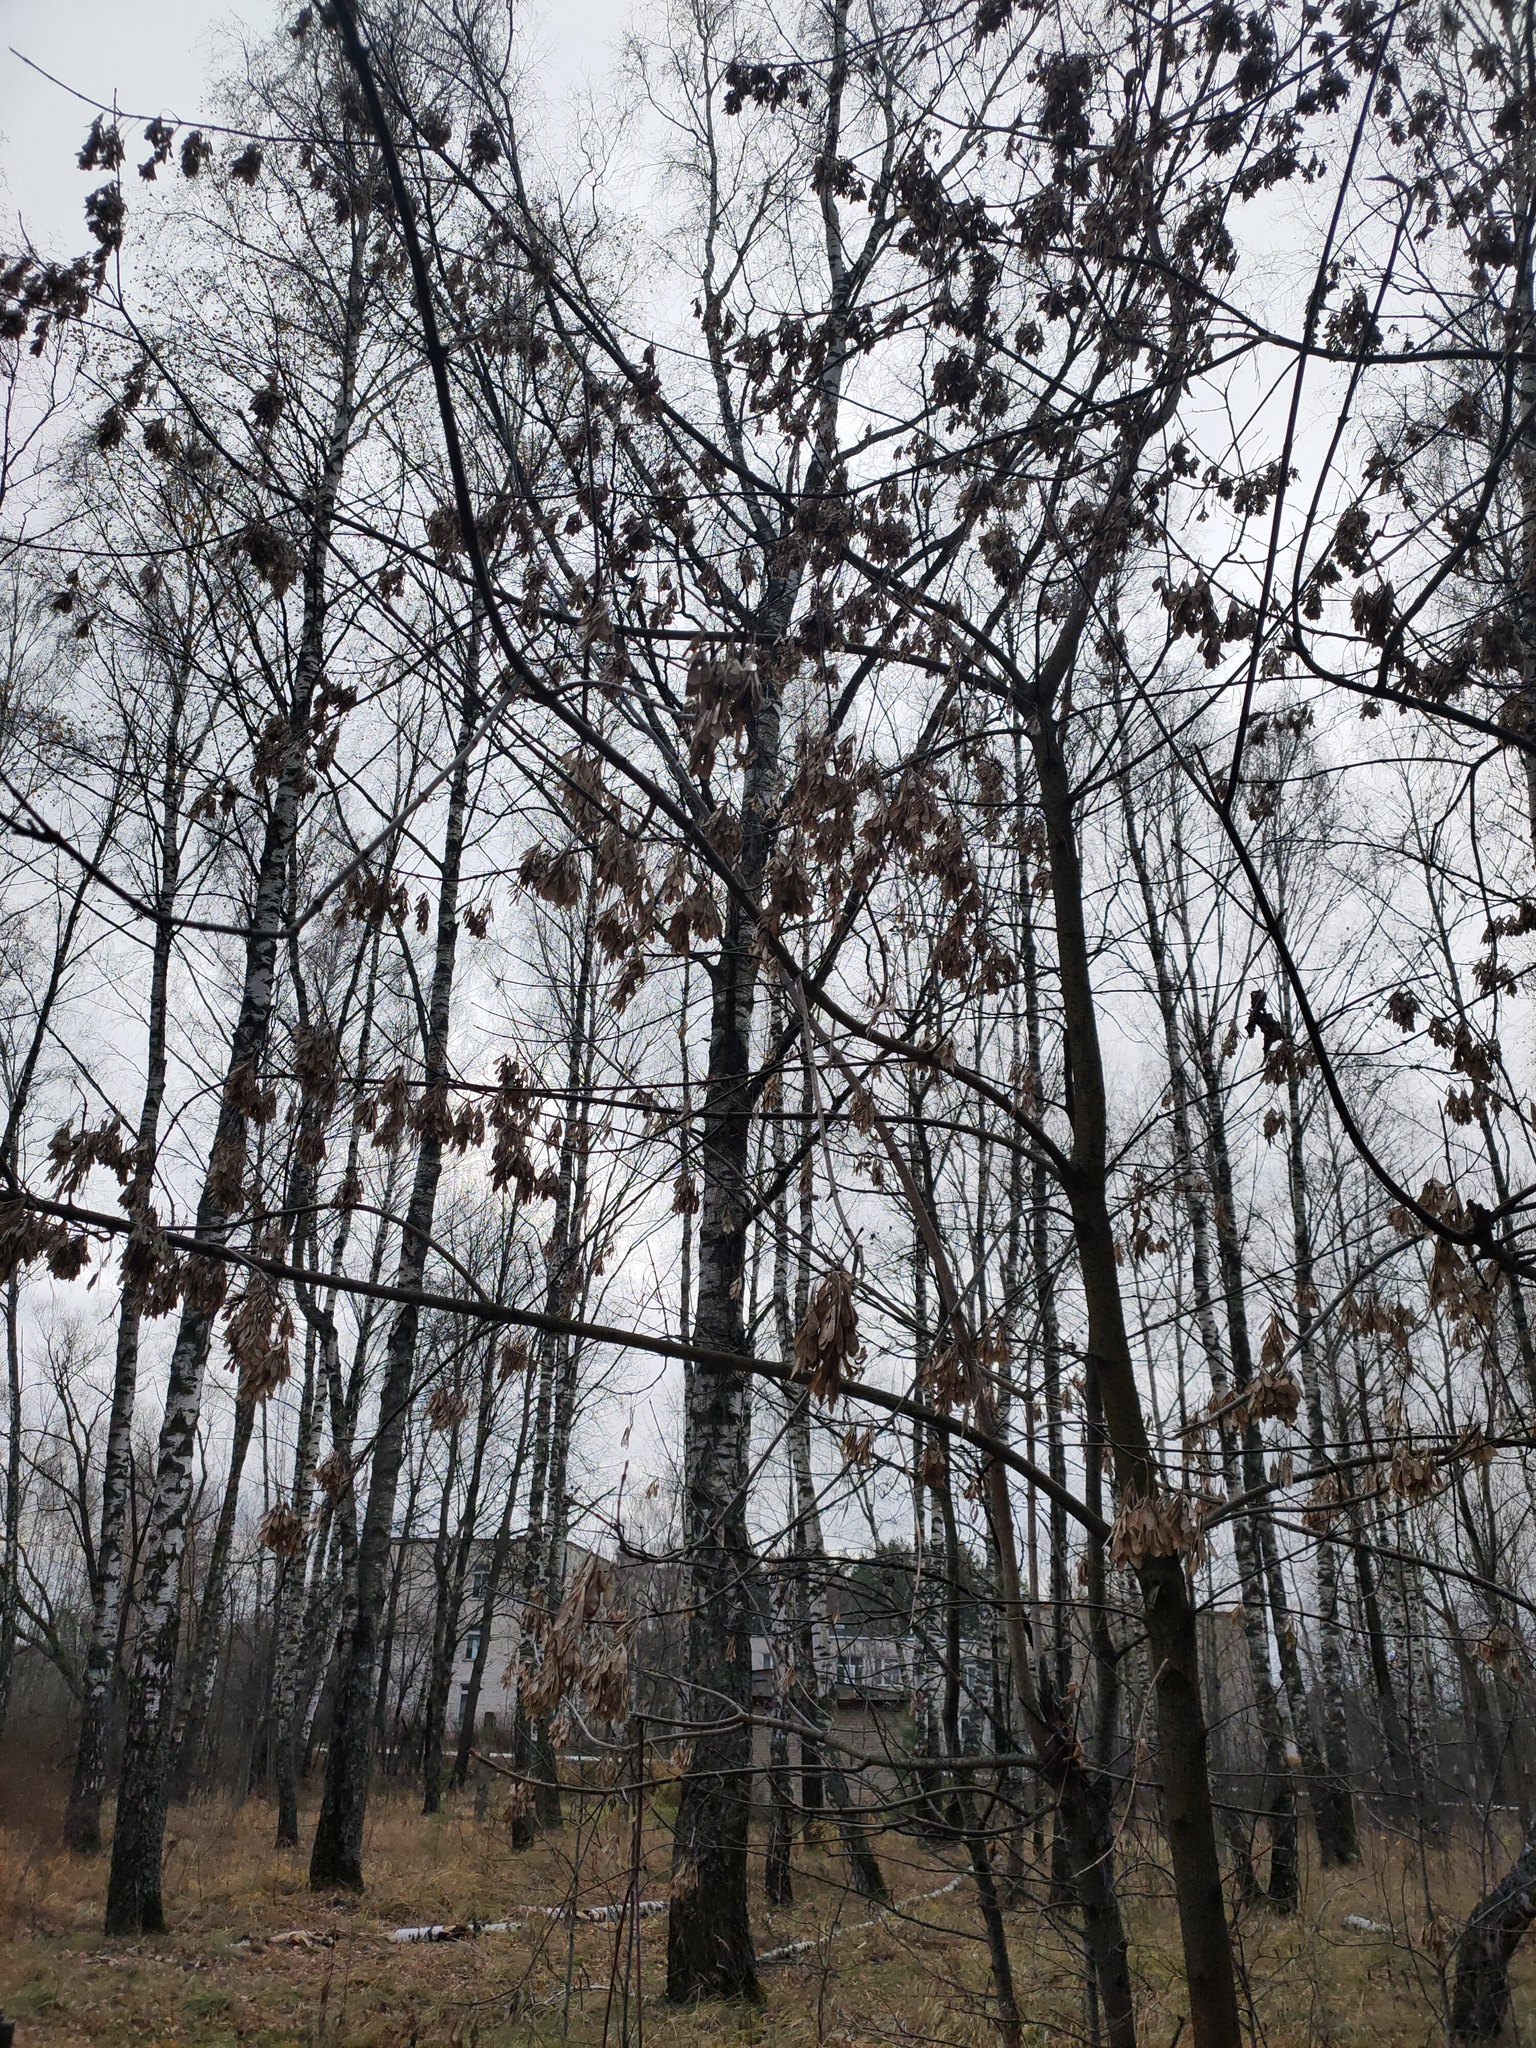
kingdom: Plantae
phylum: Tracheophyta
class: Magnoliopsida
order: Sapindales
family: Sapindaceae
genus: Acer
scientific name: Acer negundo
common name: Ashleaf maple
